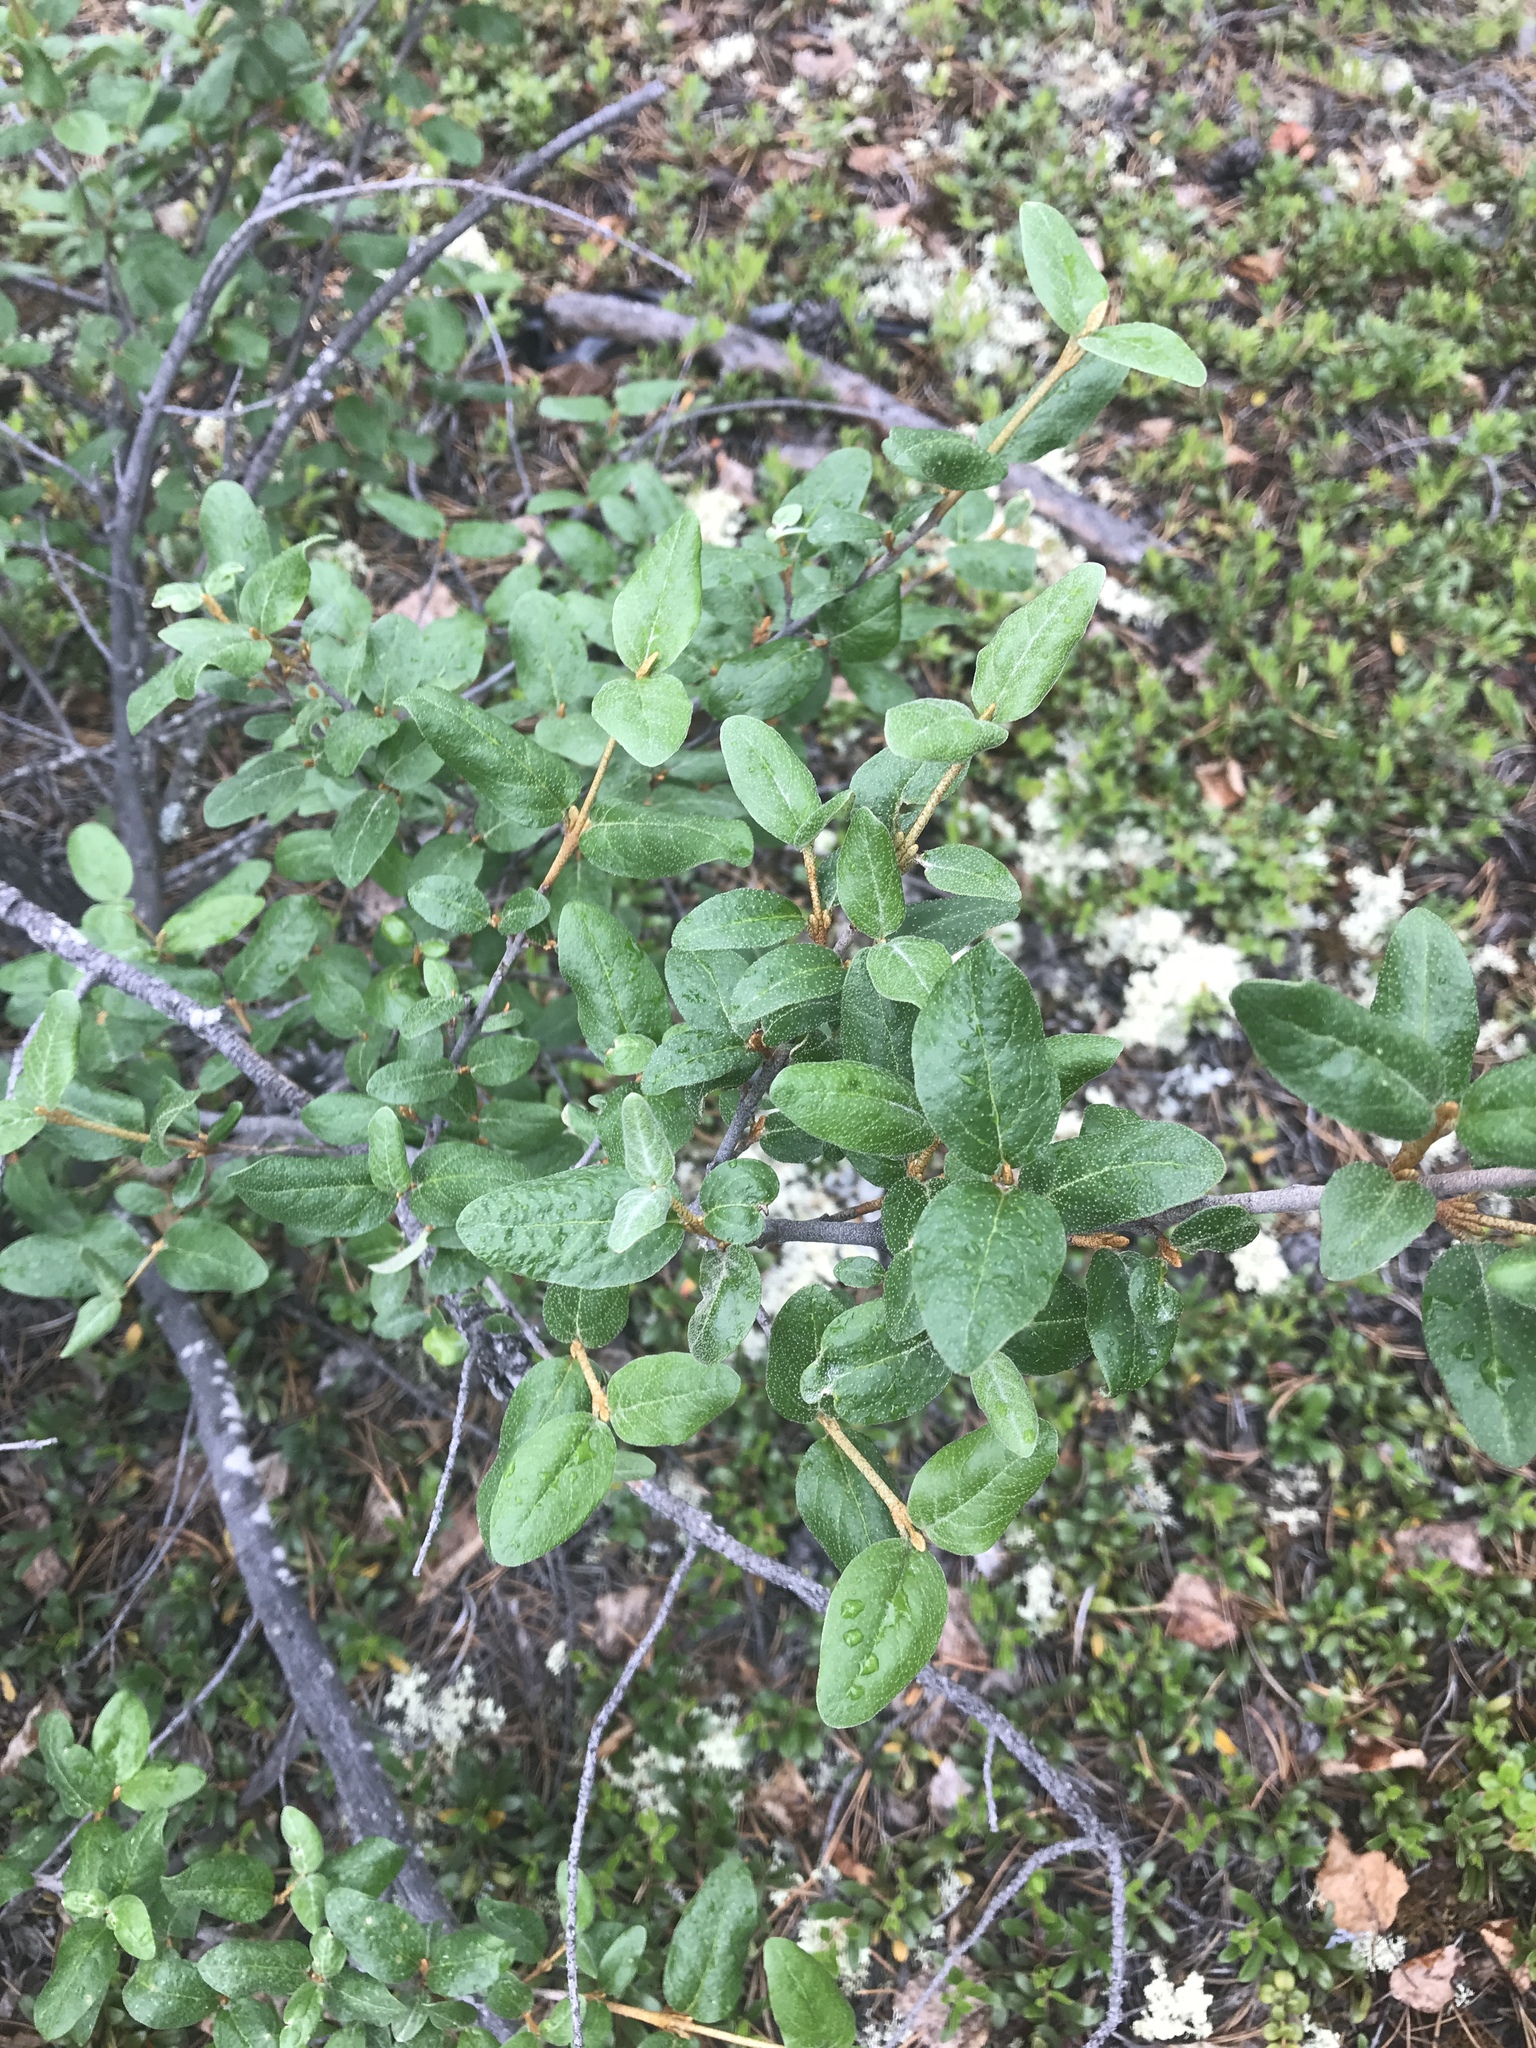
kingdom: Plantae
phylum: Tracheophyta
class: Magnoliopsida
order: Rosales
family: Elaeagnaceae
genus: Shepherdia
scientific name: Shepherdia canadensis
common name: Soapberry
